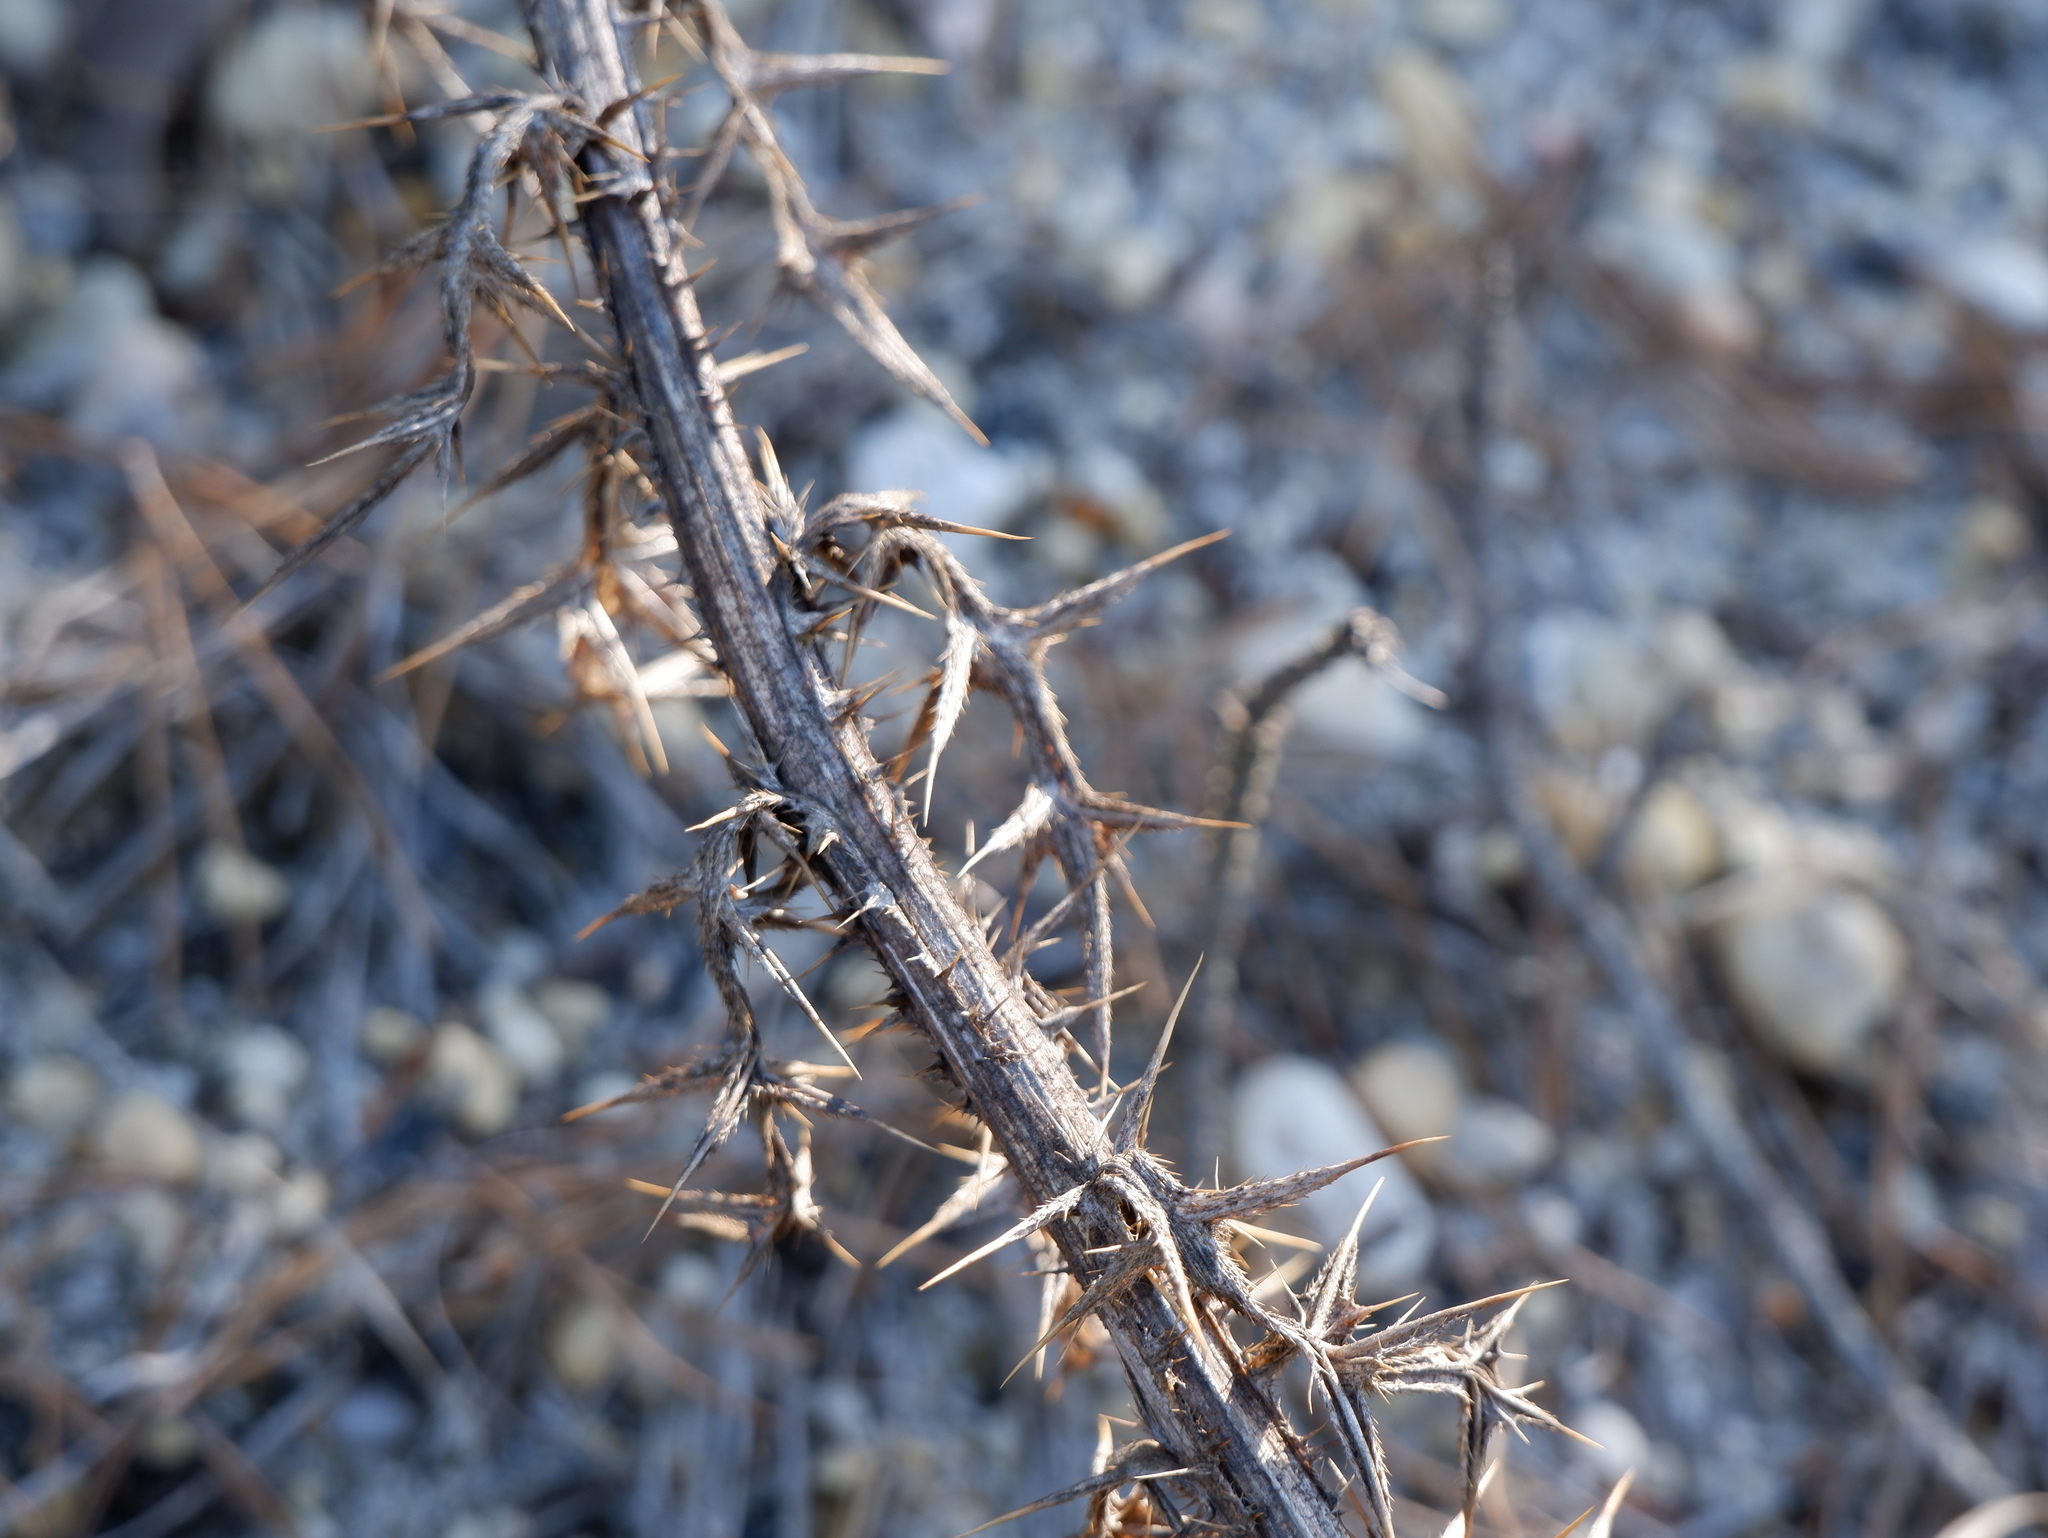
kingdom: Plantae
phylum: Tracheophyta
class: Magnoliopsida
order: Asterales
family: Asteraceae
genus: Cirsium
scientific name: Cirsium vulgare
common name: Bull thistle
